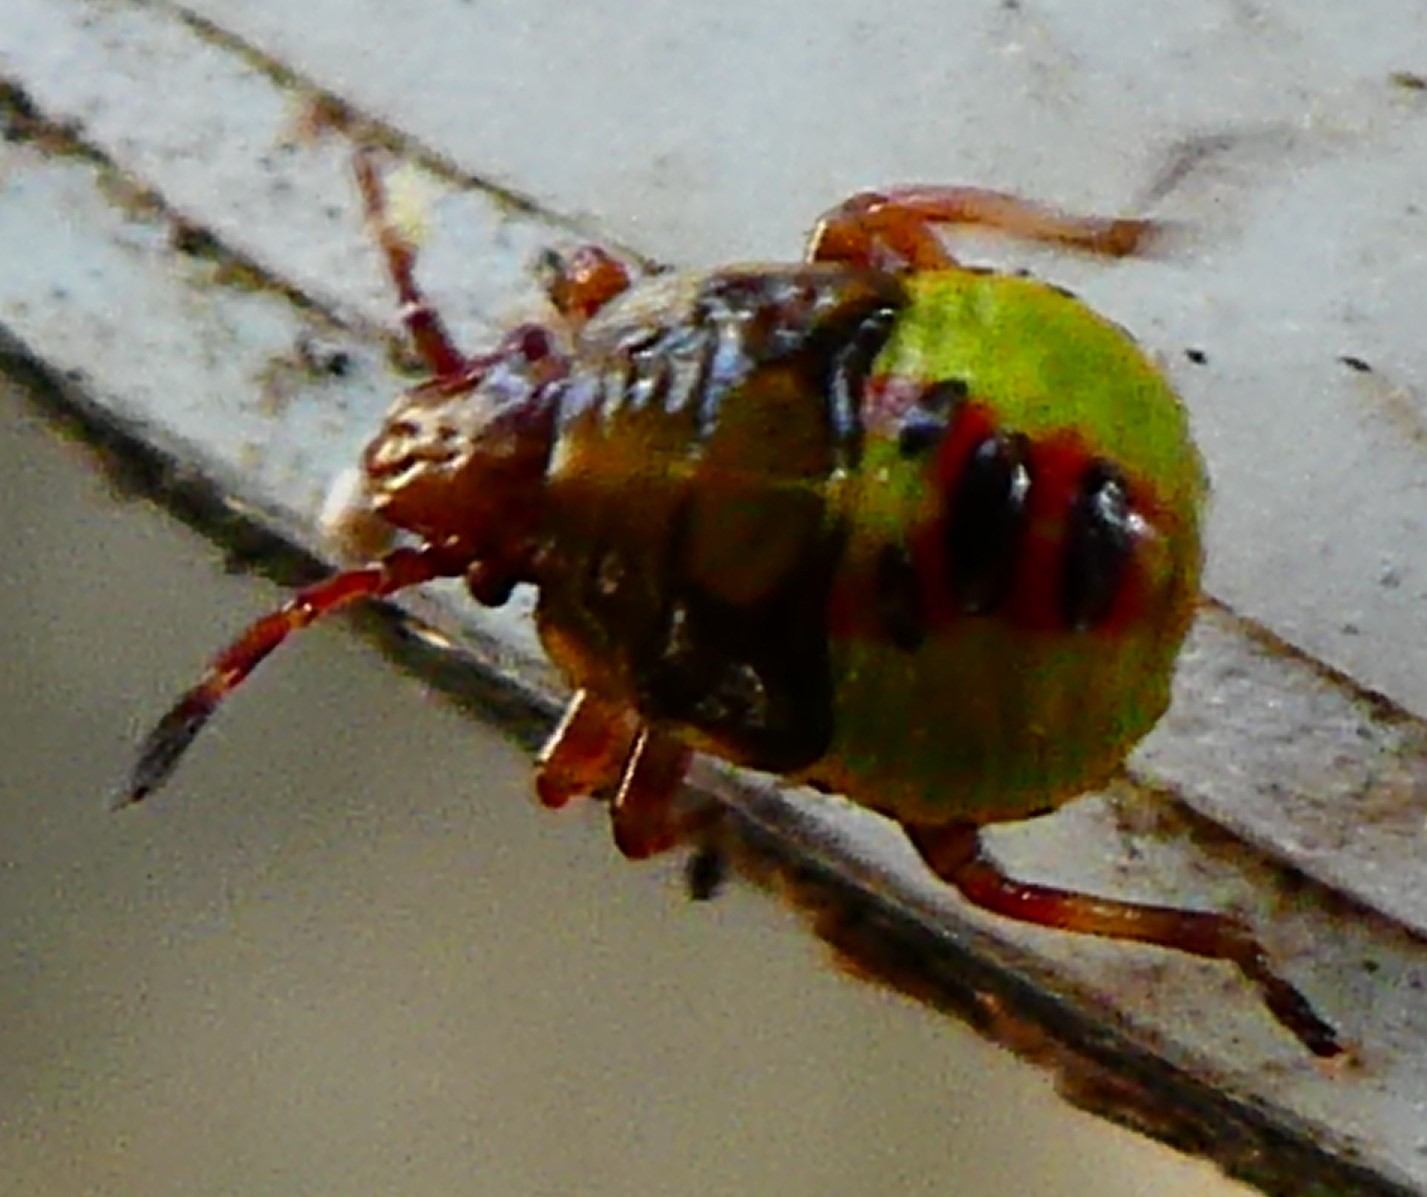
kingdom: Animalia
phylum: Arthropoda
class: Insecta
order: Hemiptera
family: Acanthosomatidae
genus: Acanthosoma
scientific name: Acanthosoma haemorrhoidale
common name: Hawthorn shieldbug
